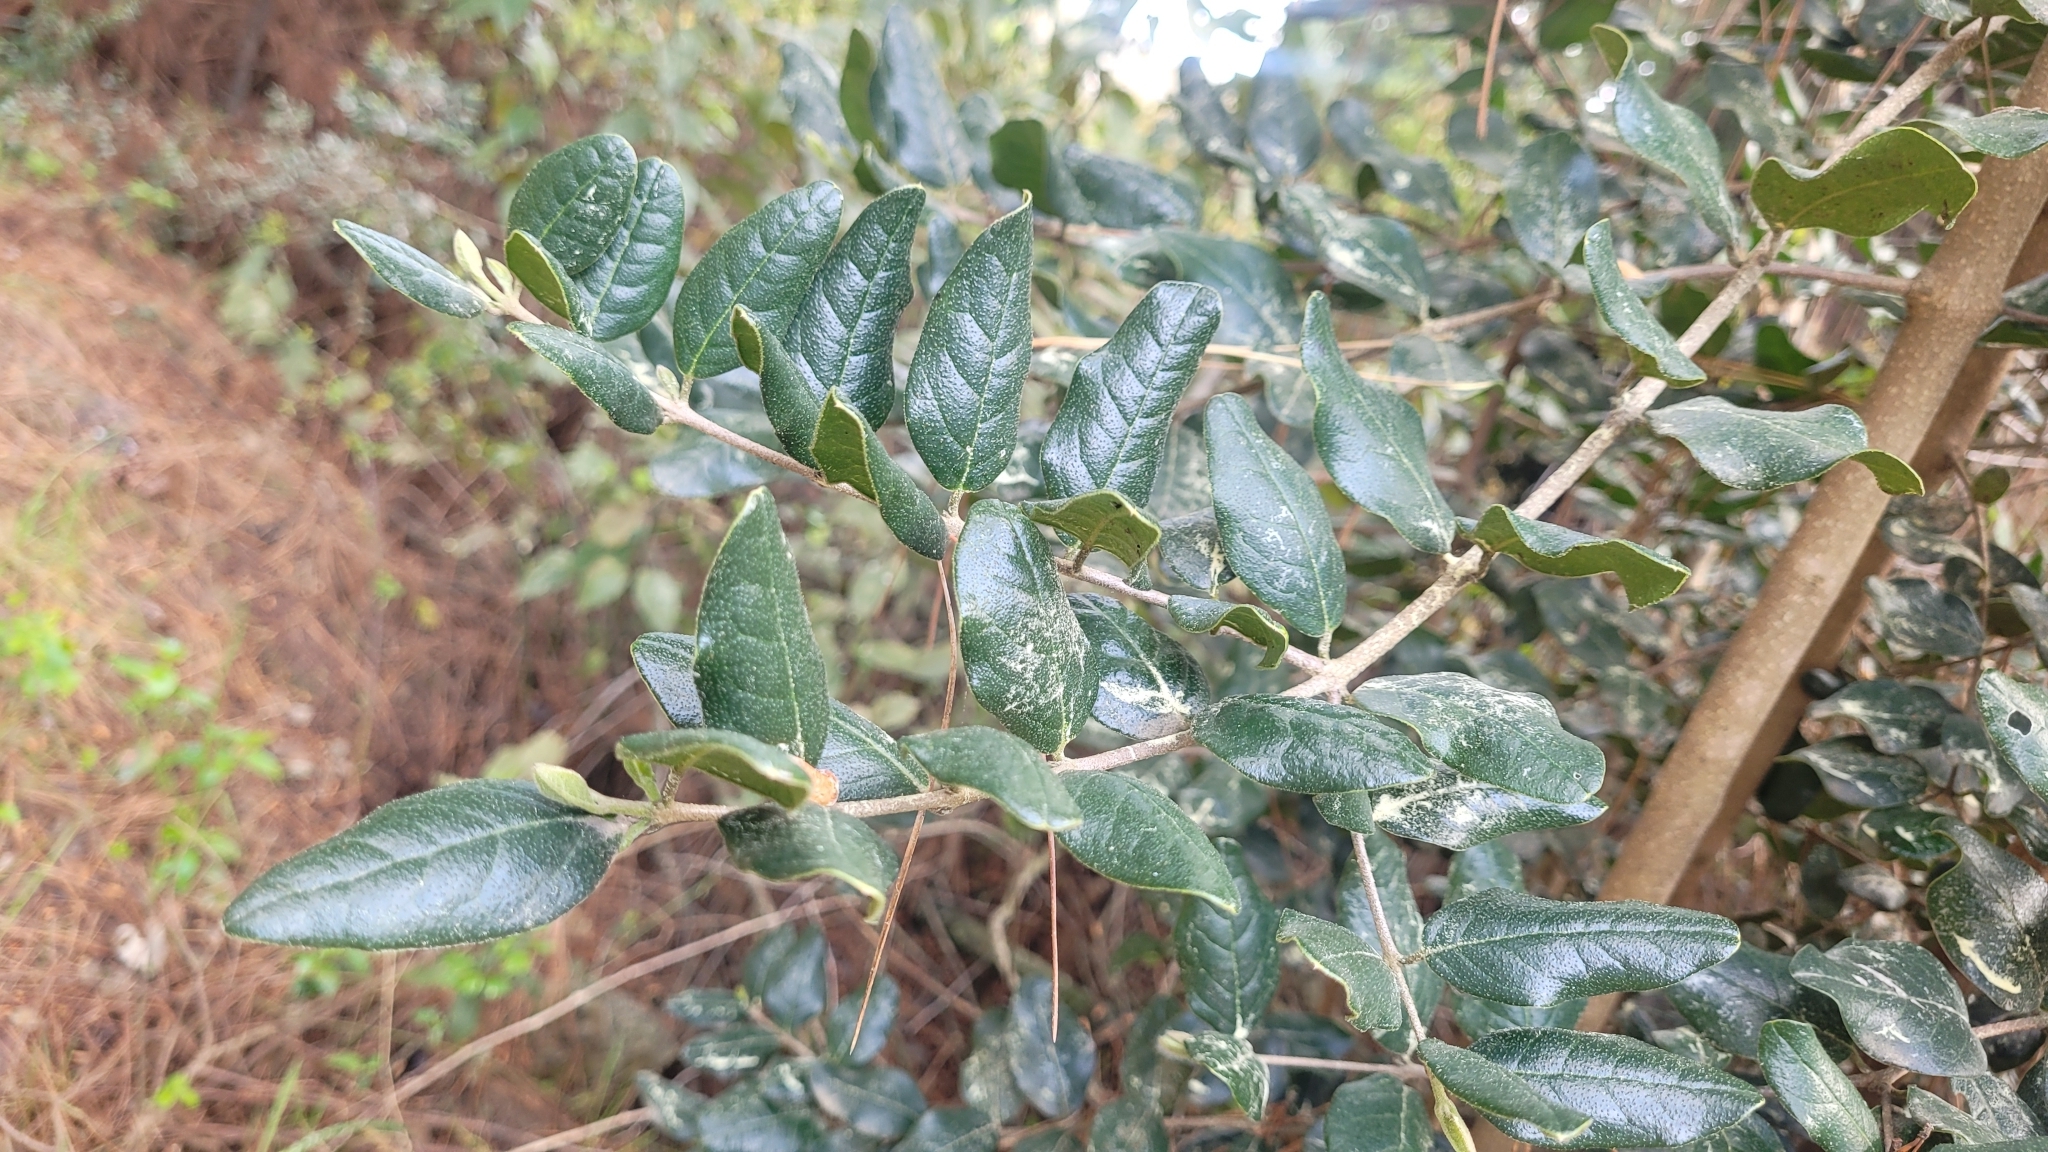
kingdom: Plantae
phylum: Tracheophyta
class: Magnoliopsida
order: Laurales
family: Monimiaceae
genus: Peumus
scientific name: Peumus boldus
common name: Boldo
